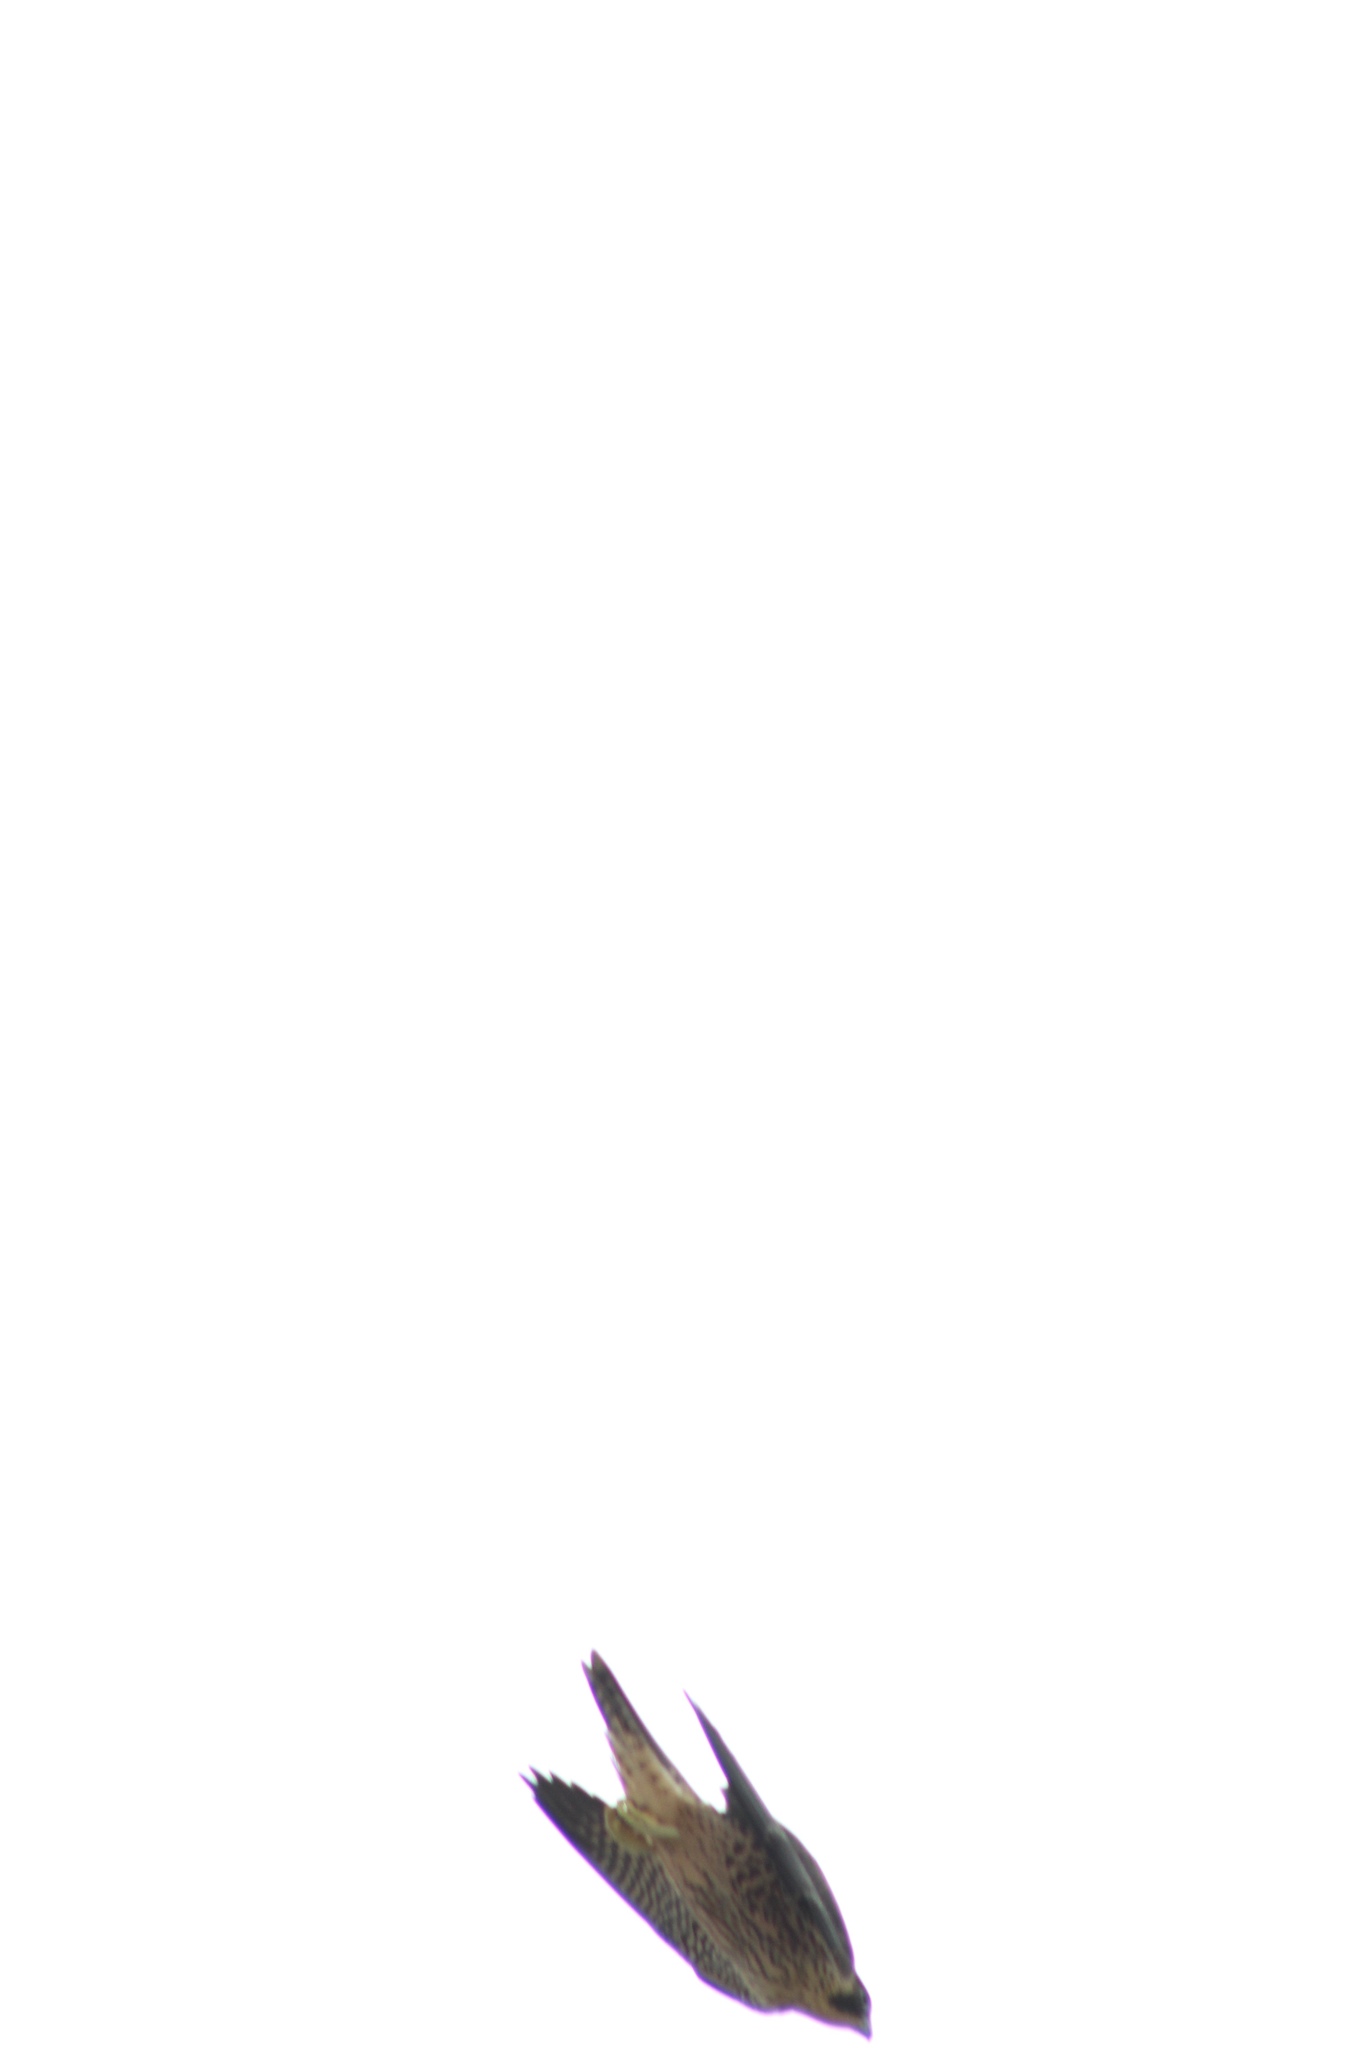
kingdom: Animalia
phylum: Chordata
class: Aves
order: Falconiformes
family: Falconidae
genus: Falco
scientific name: Falco peregrinus
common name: Peregrine falcon
